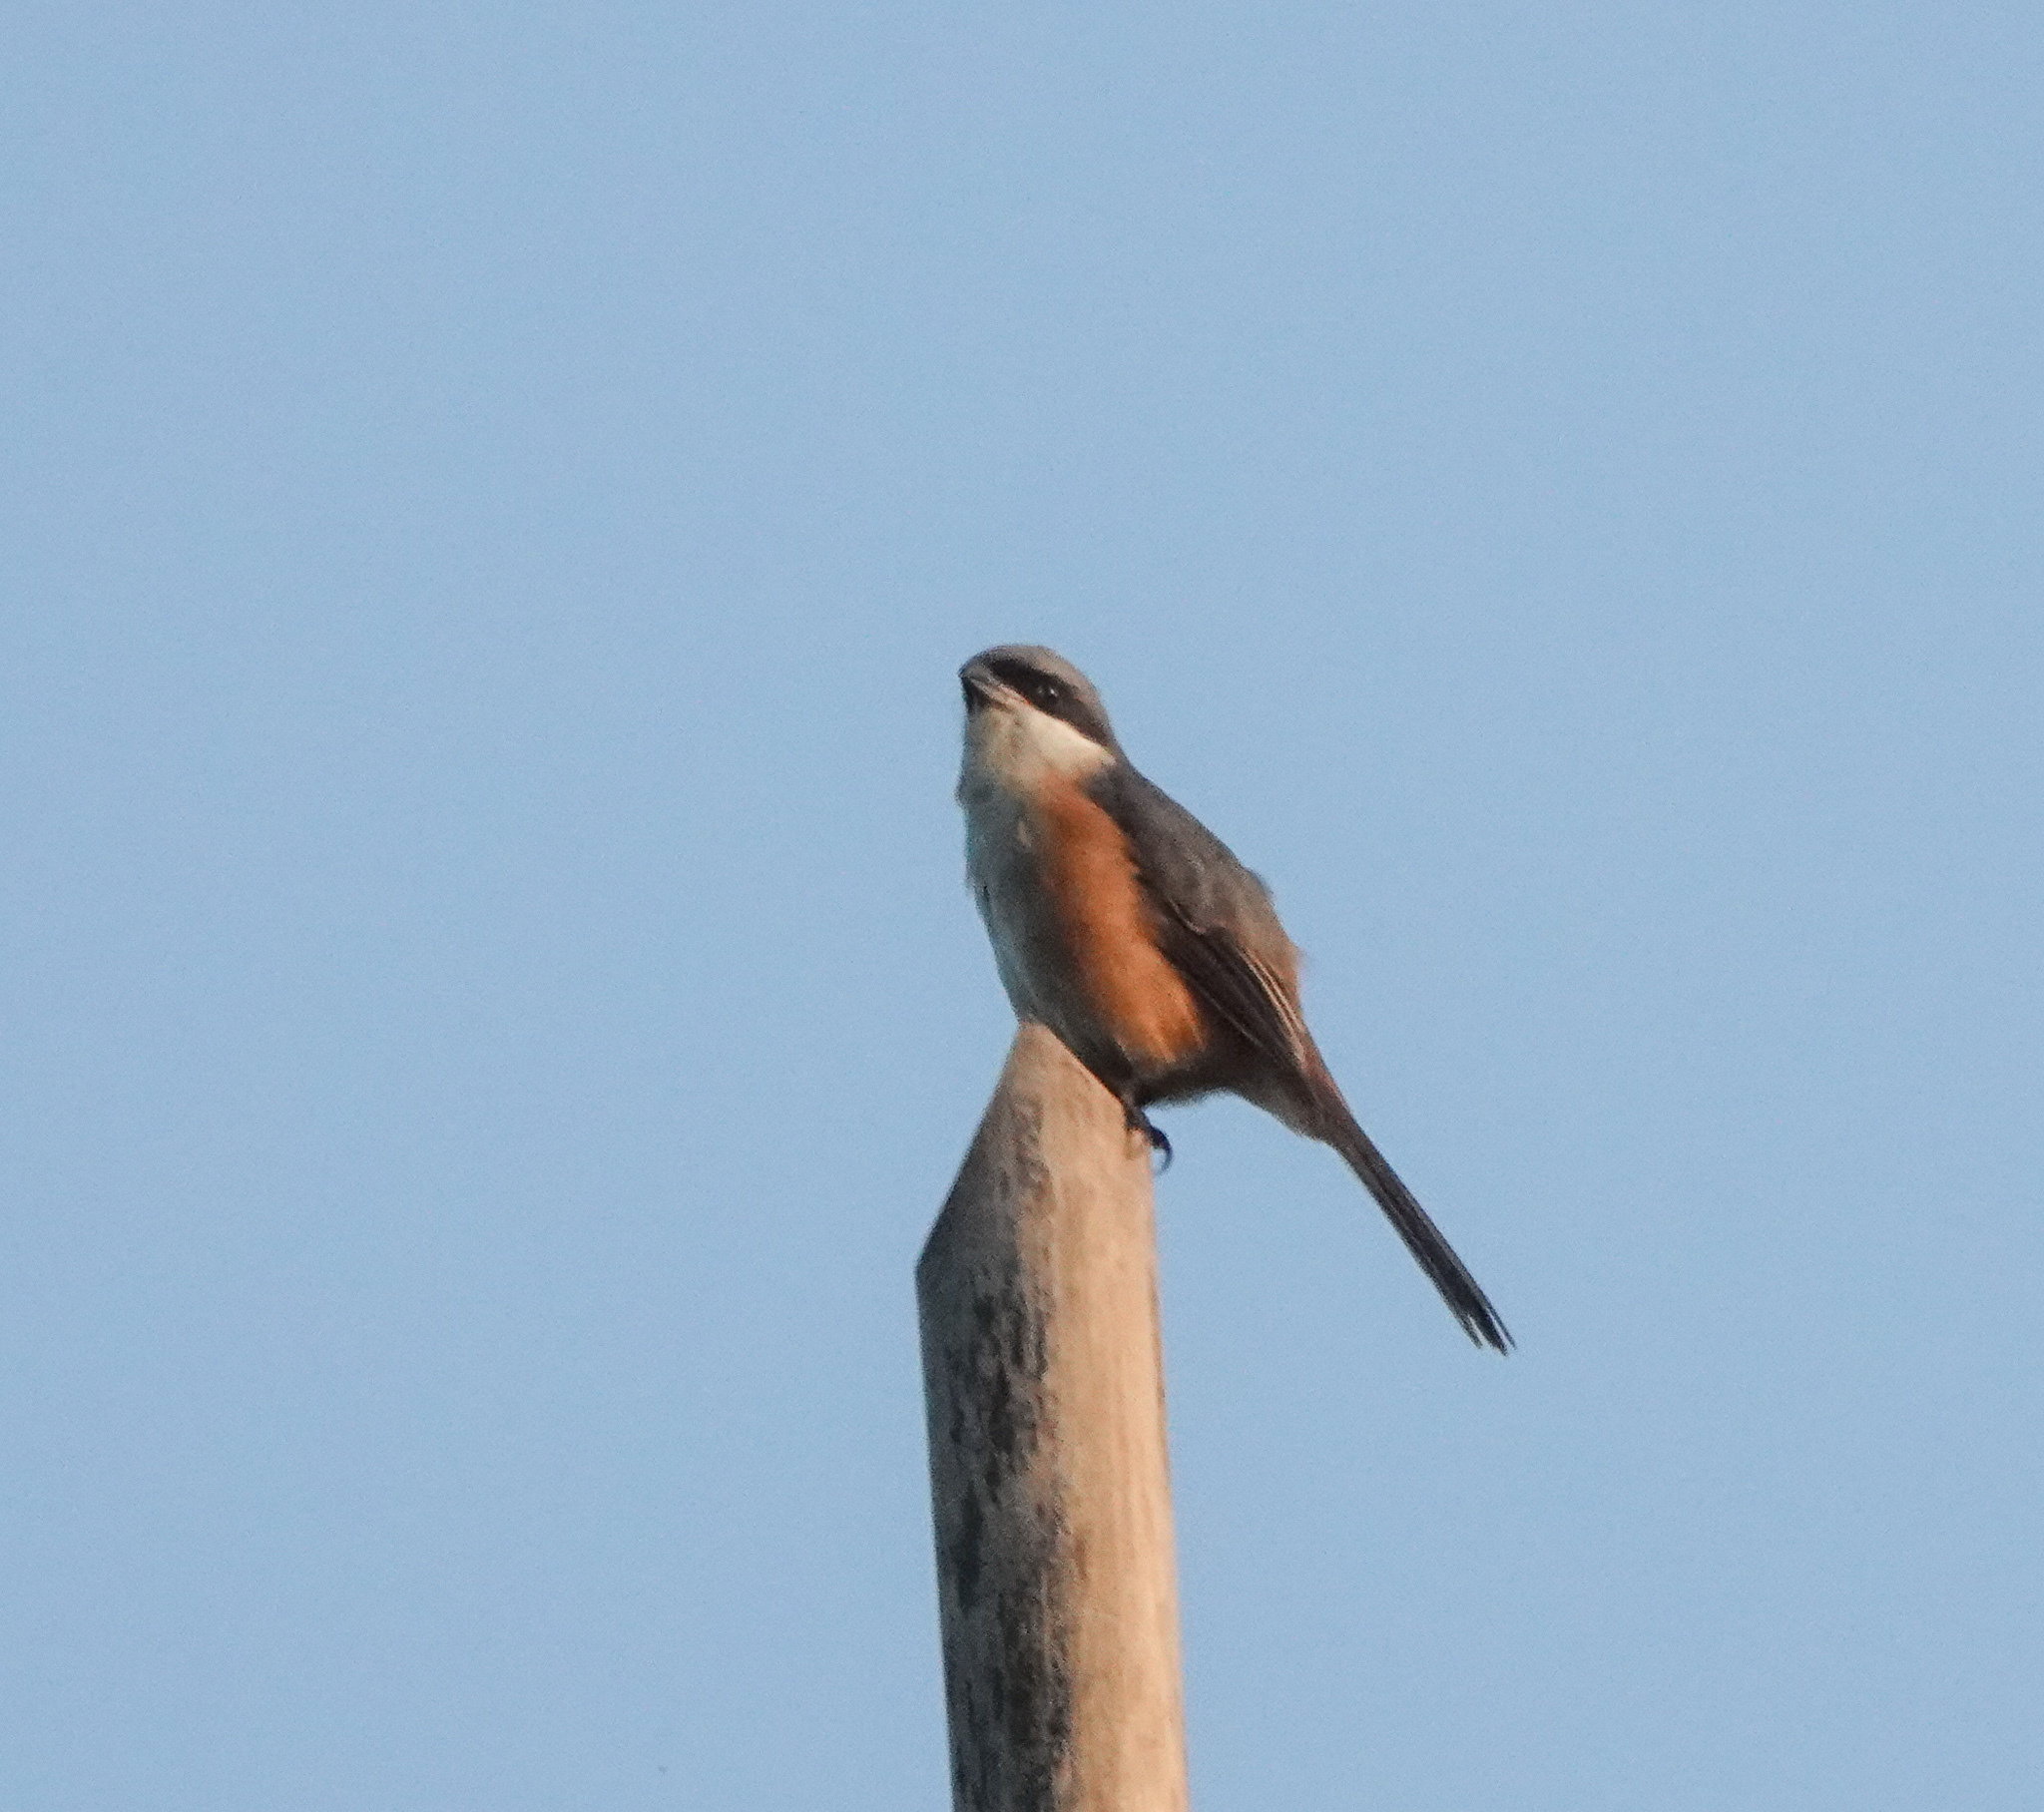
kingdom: Animalia
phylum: Chordata
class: Aves
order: Passeriformes
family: Laniidae
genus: Lanius
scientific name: Lanius tephronotus
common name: Grey-backed shrike
